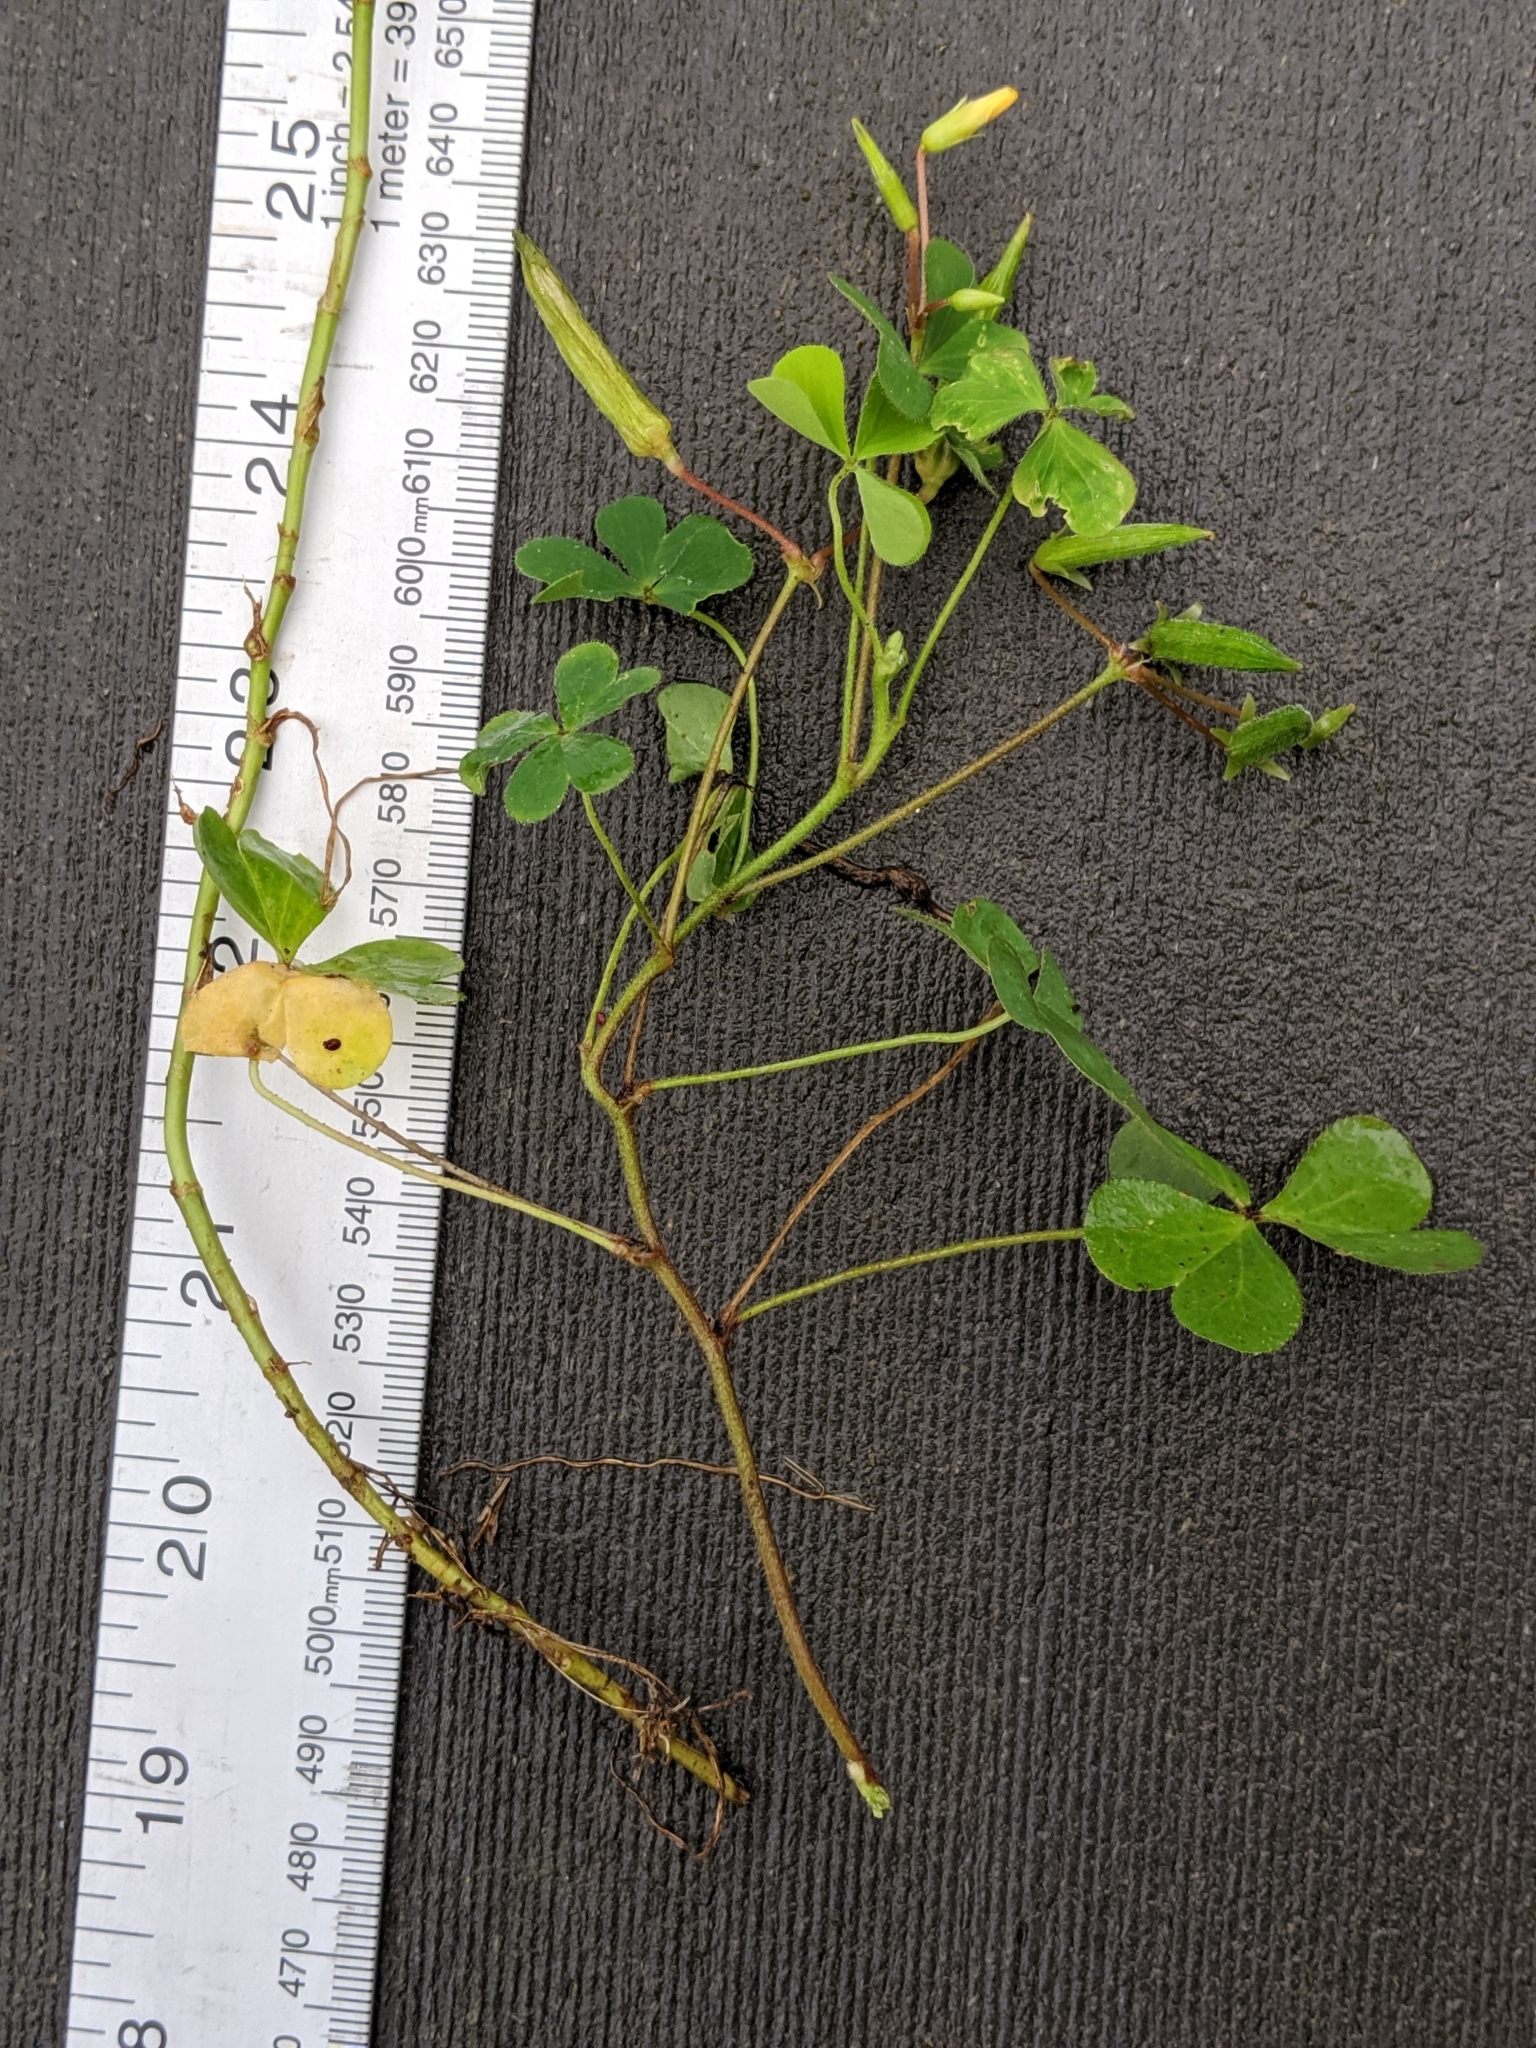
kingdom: Plantae
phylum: Tracheophyta
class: Magnoliopsida
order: Oxalidales
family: Oxalidaceae
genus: Oxalis
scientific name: Oxalis corniculata
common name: Procumbent yellow-sorrel
